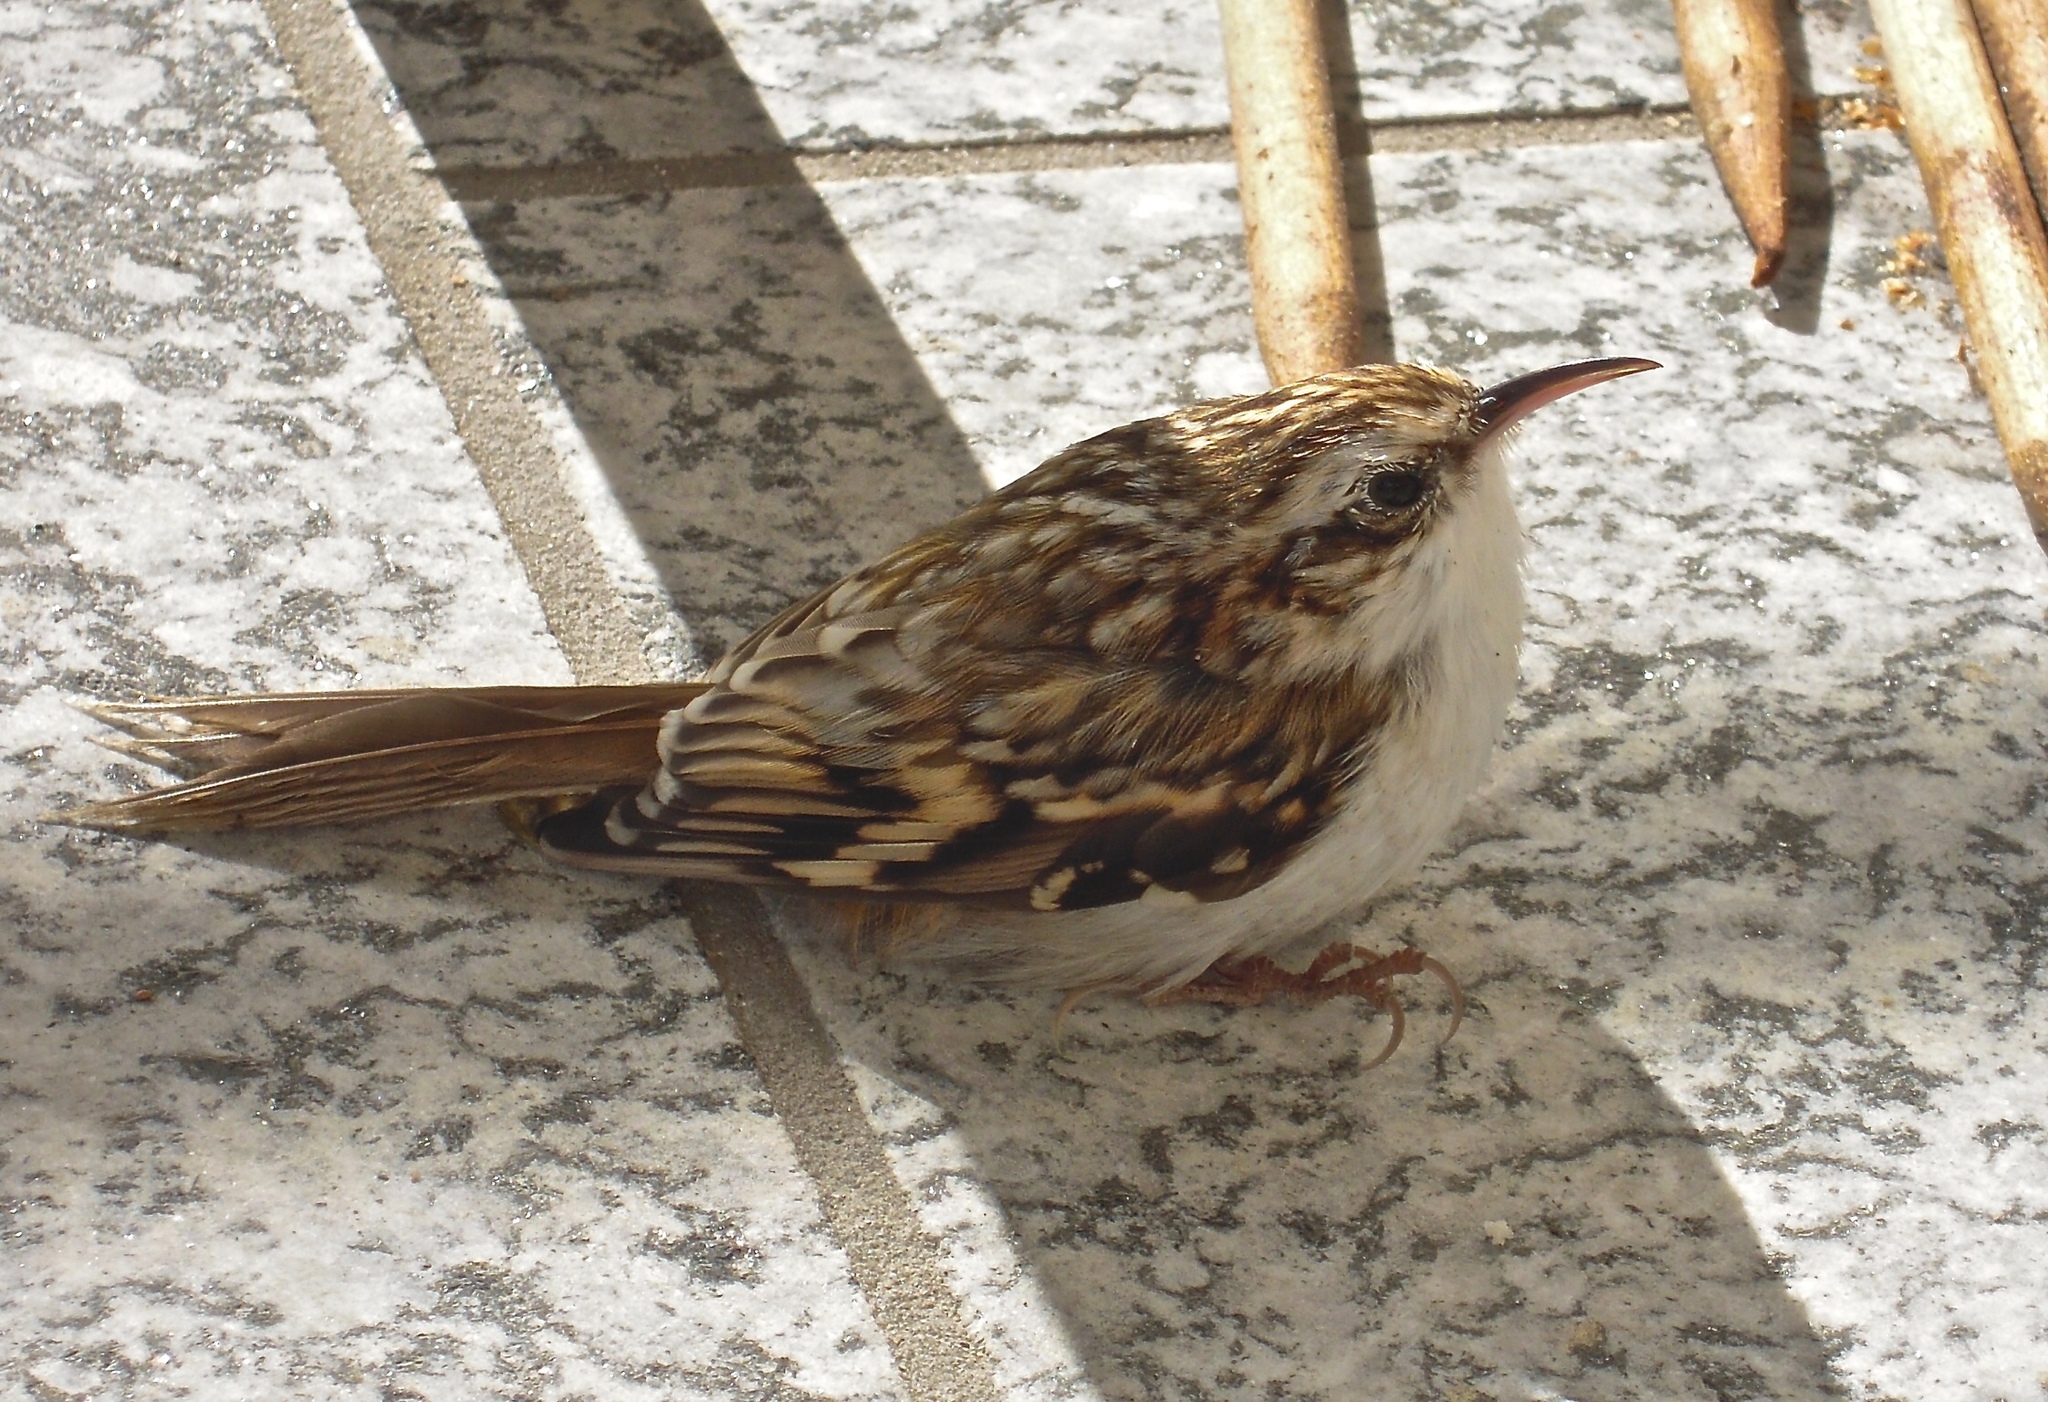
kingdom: Animalia
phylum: Chordata
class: Aves
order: Passeriformes
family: Certhiidae
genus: Certhia
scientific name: Certhia familiaris
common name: Eurasian treecreeper
